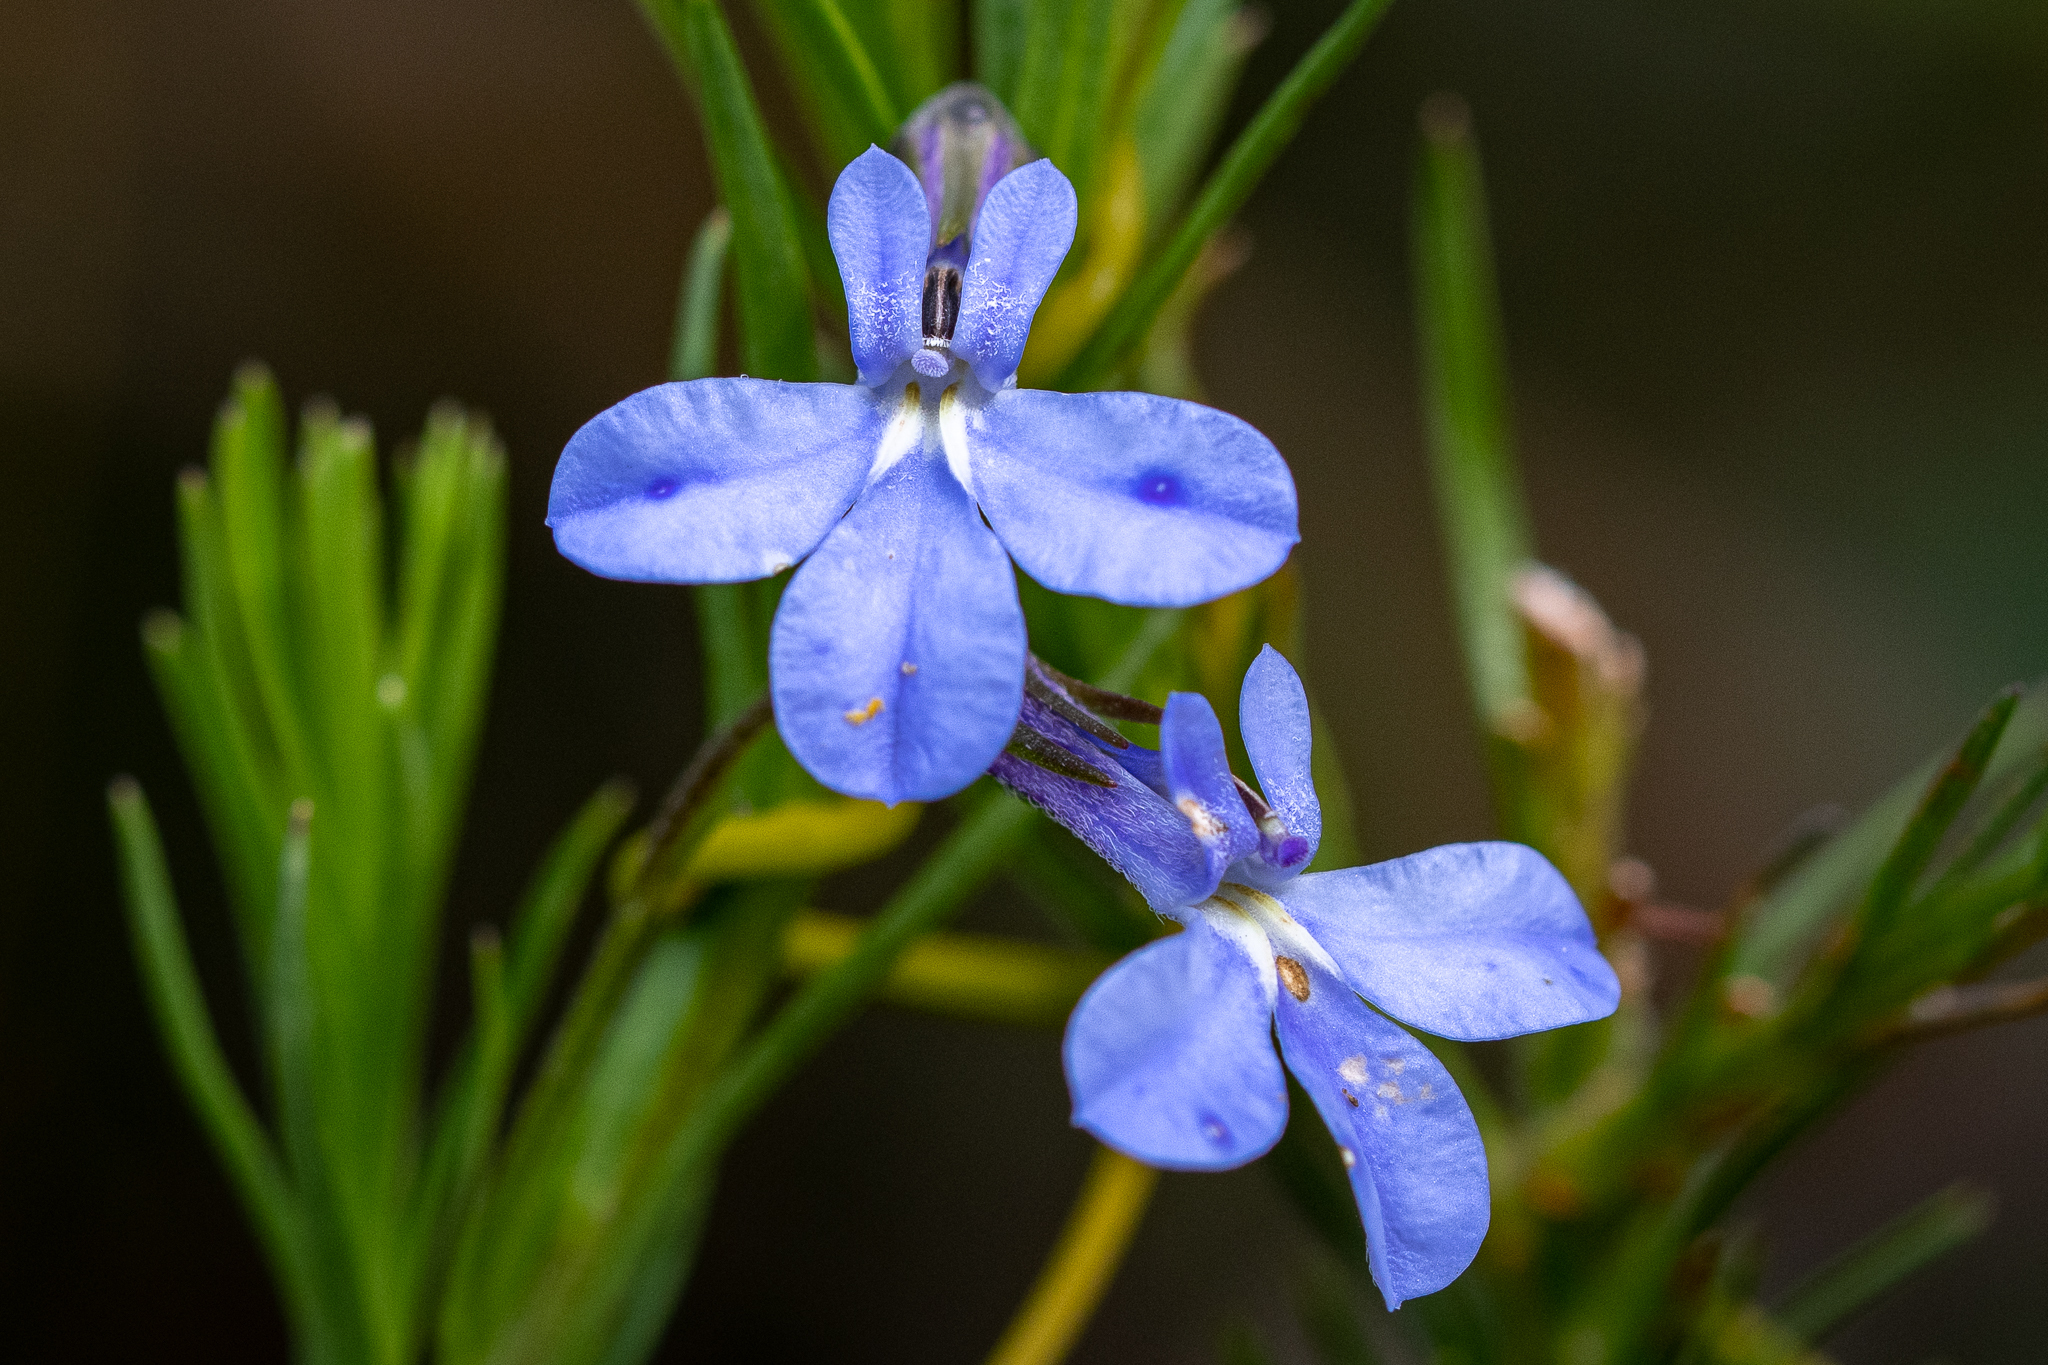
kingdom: Plantae
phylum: Tracheophyta
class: Magnoliopsida
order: Asterales
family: Campanulaceae
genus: Lobelia
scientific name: Lobelia pinifolia
